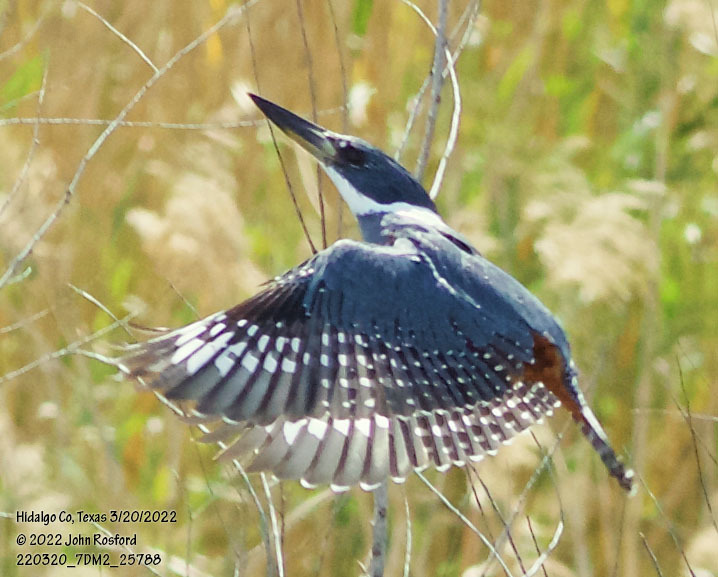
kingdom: Animalia
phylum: Chordata
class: Aves
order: Coraciiformes
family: Alcedinidae
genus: Megaceryle
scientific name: Megaceryle torquata
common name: Ringed kingfisher
